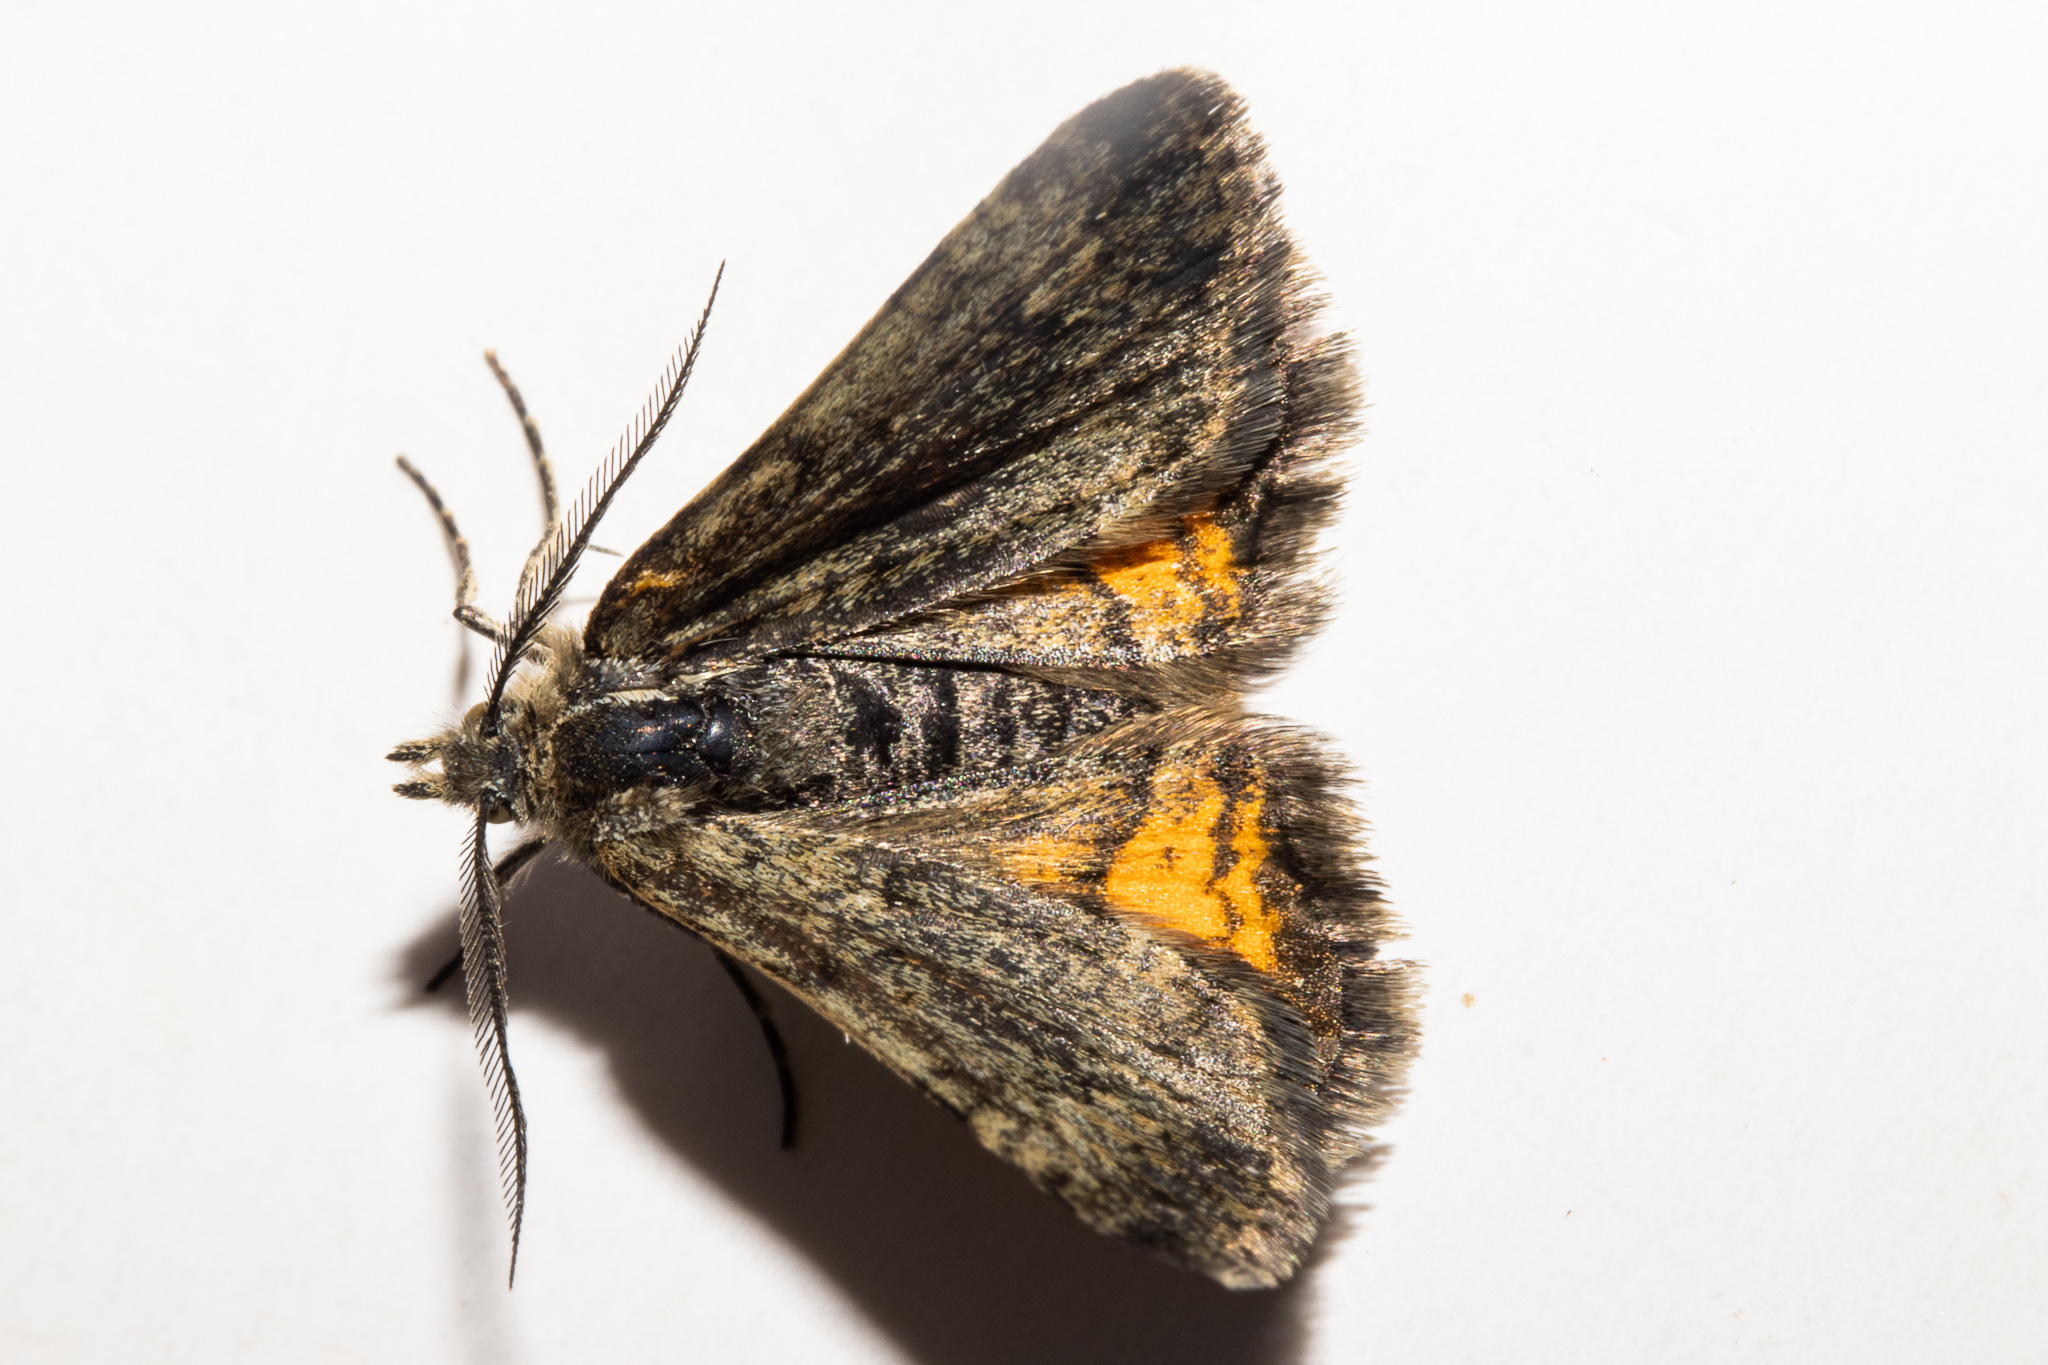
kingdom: Animalia
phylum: Arthropoda
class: Insecta
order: Lepidoptera
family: Geometridae
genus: Paranotoreas
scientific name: Paranotoreas brephosata
